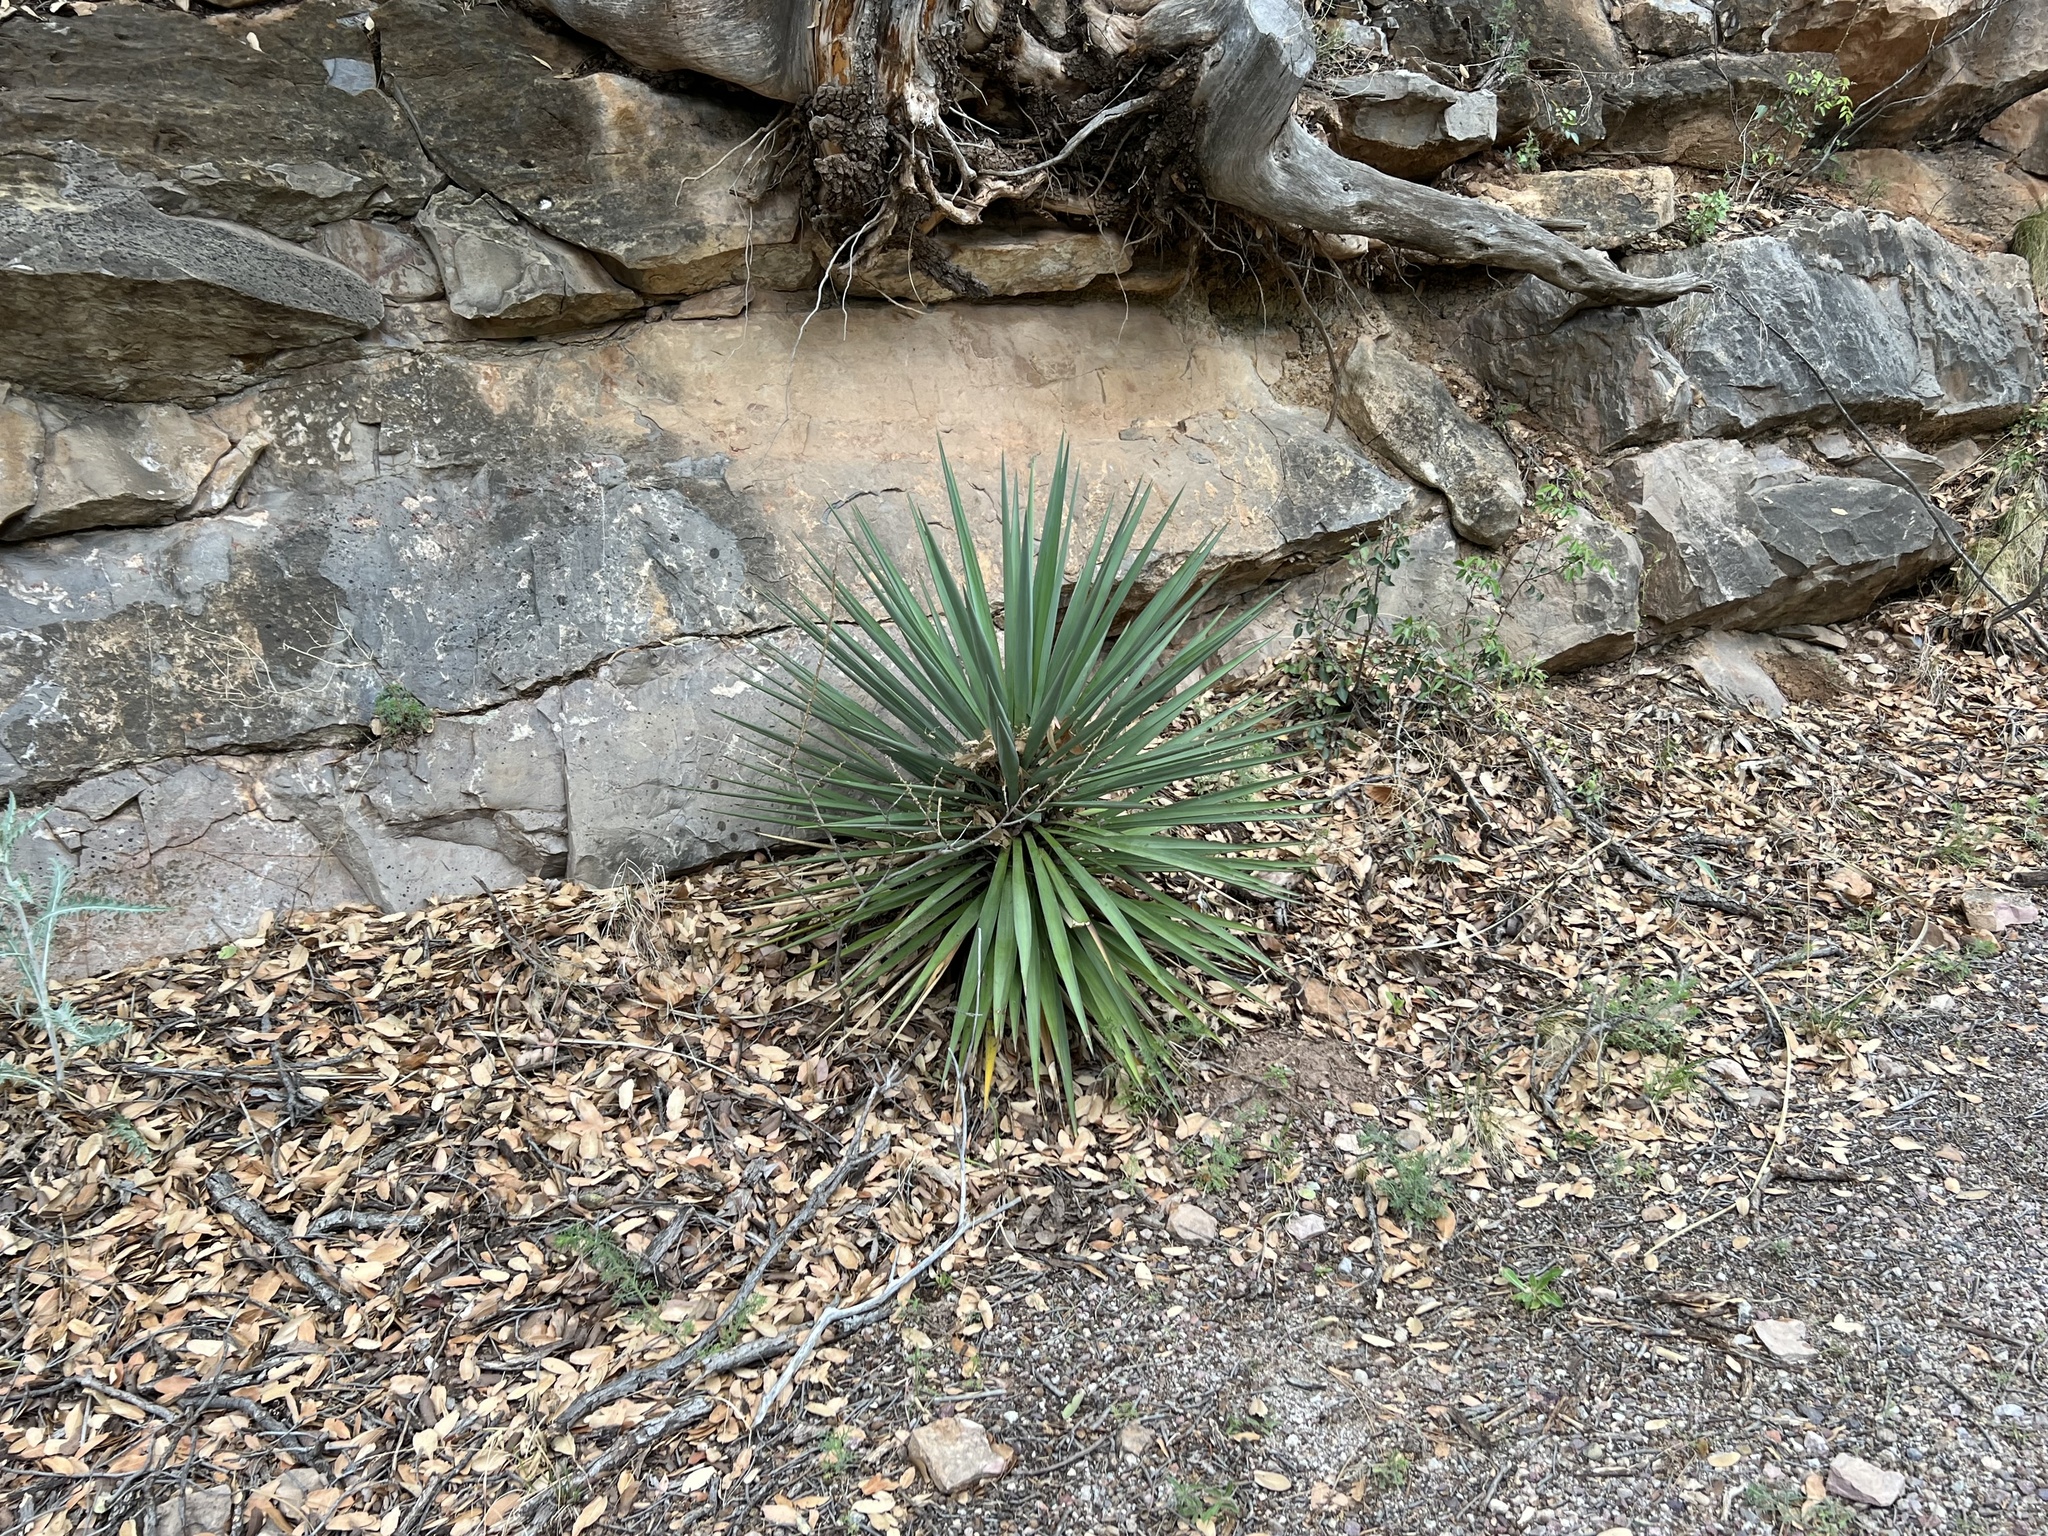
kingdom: Plantae
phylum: Tracheophyta
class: Liliopsida
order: Asparagales
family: Asparagaceae
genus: Yucca
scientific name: Yucca schottii
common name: Hoary yucca
